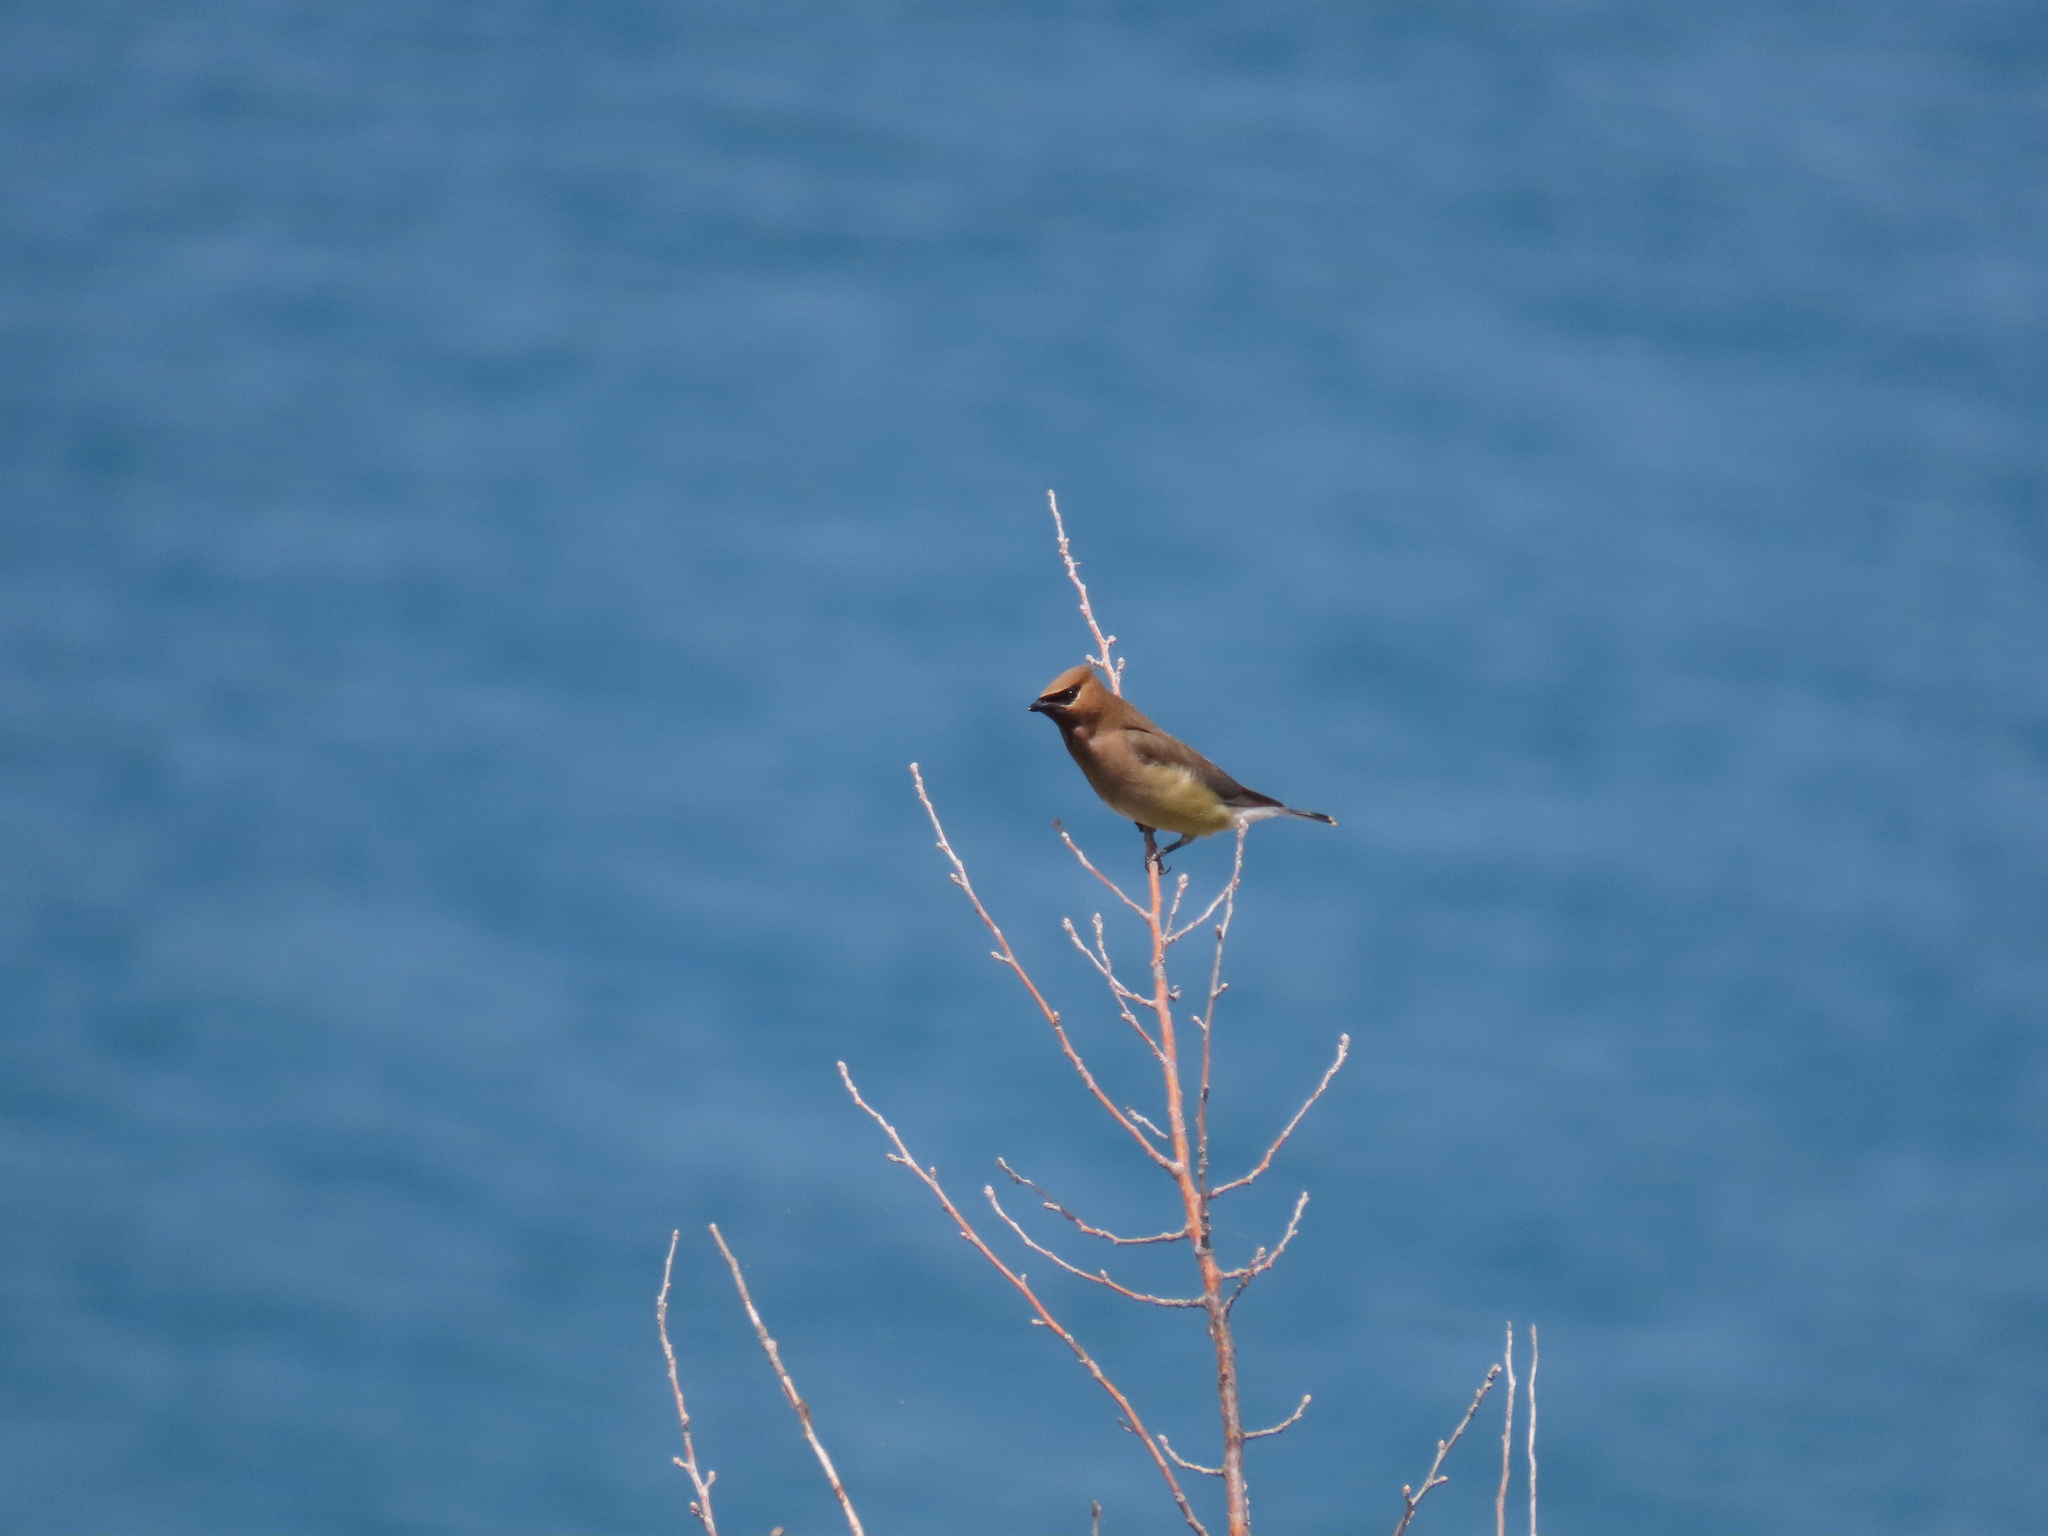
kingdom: Animalia
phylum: Chordata
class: Aves
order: Passeriformes
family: Bombycillidae
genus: Bombycilla
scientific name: Bombycilla cedrorum
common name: Cedar waxwing
